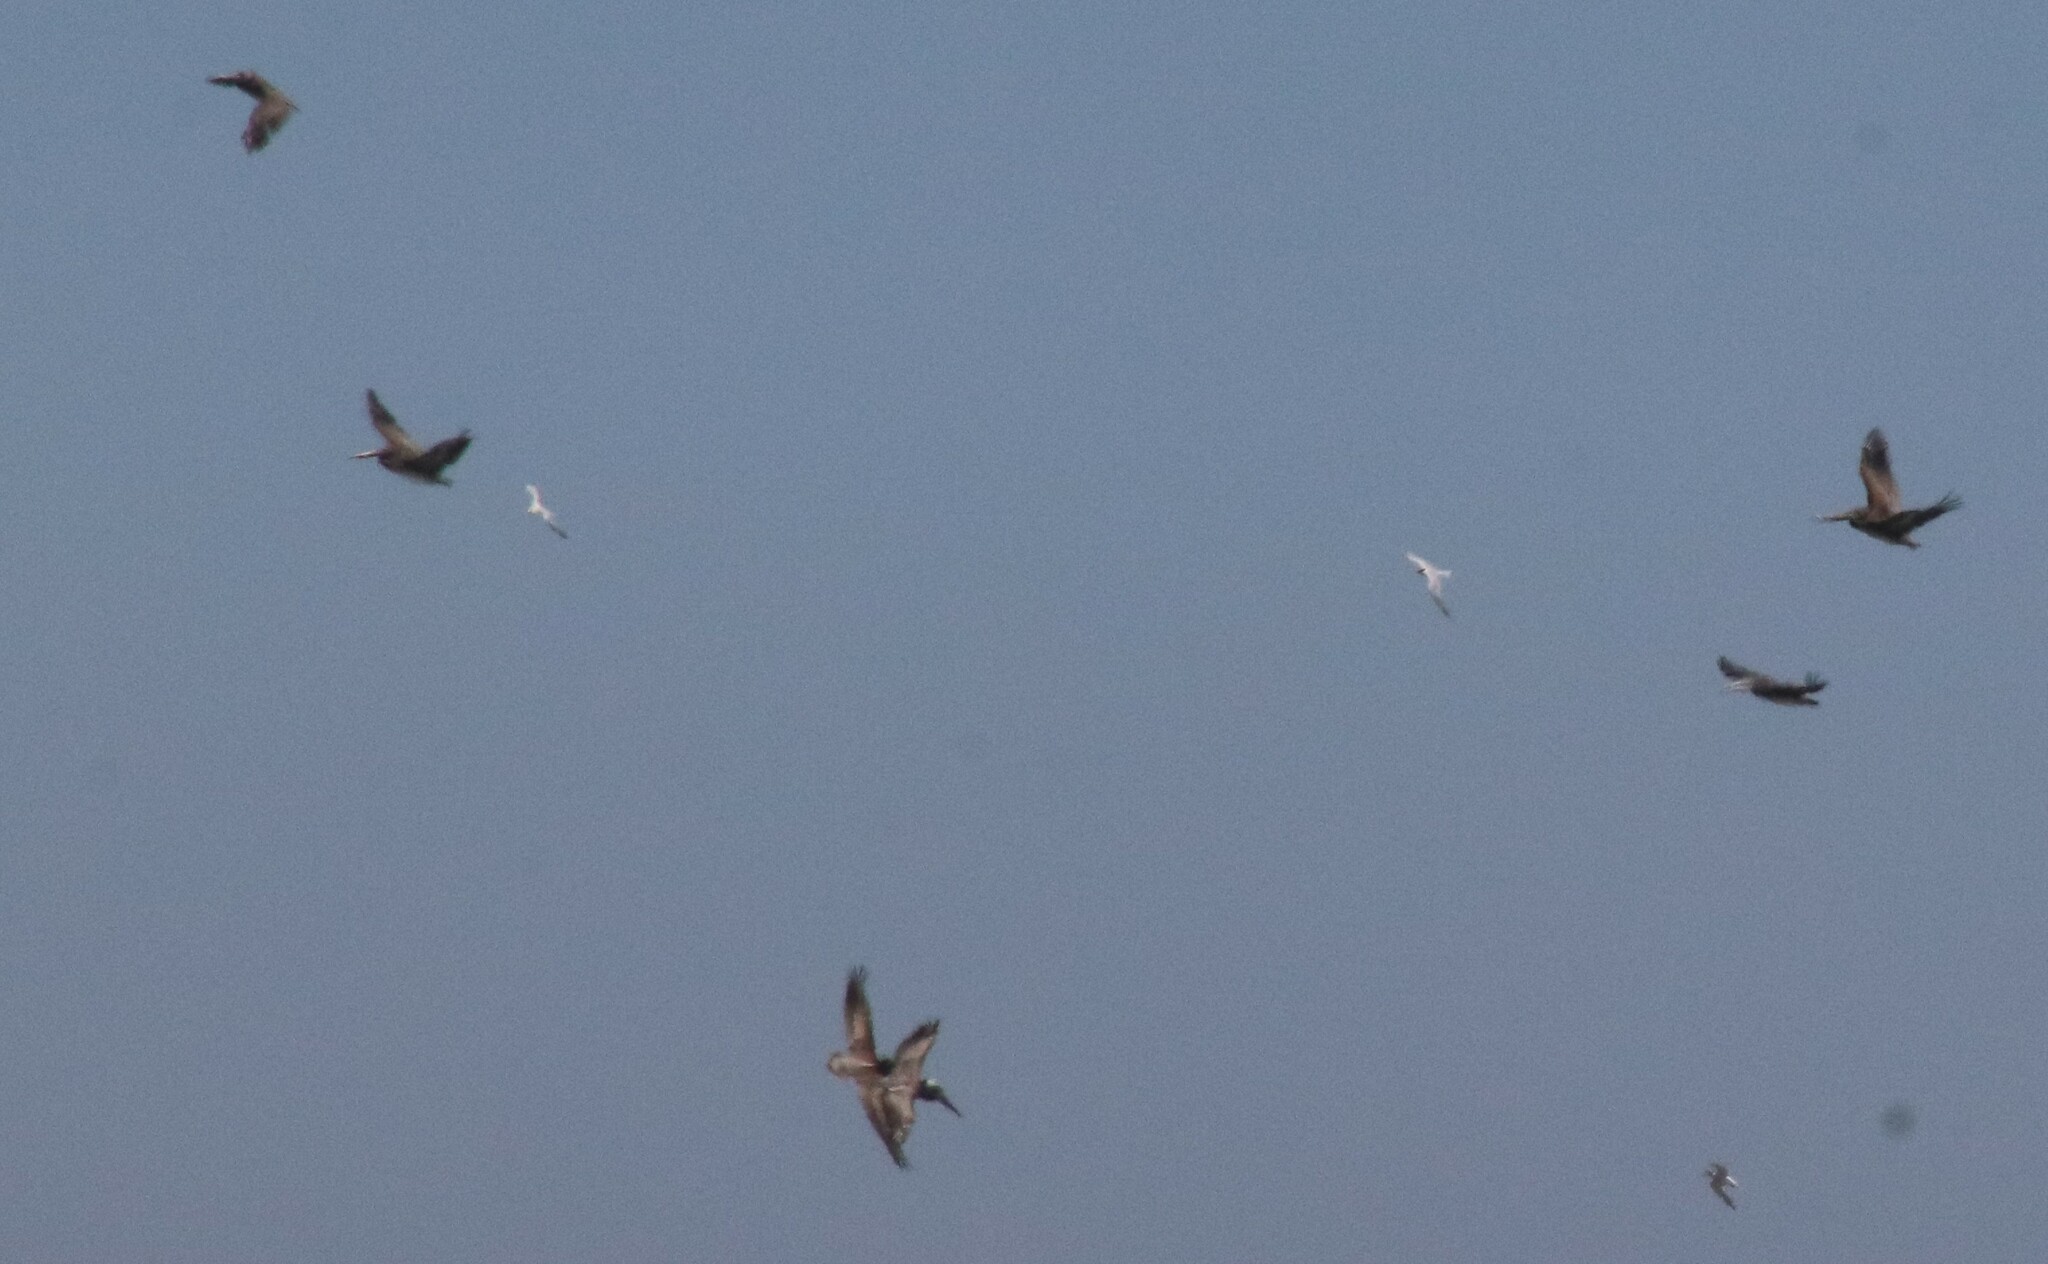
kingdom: Animalia
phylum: Chordata
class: Aves
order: Pelecaniformes
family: Pelecanidae
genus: Pelecanus
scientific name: Pelecanus occidentalis
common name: Brown pelican
